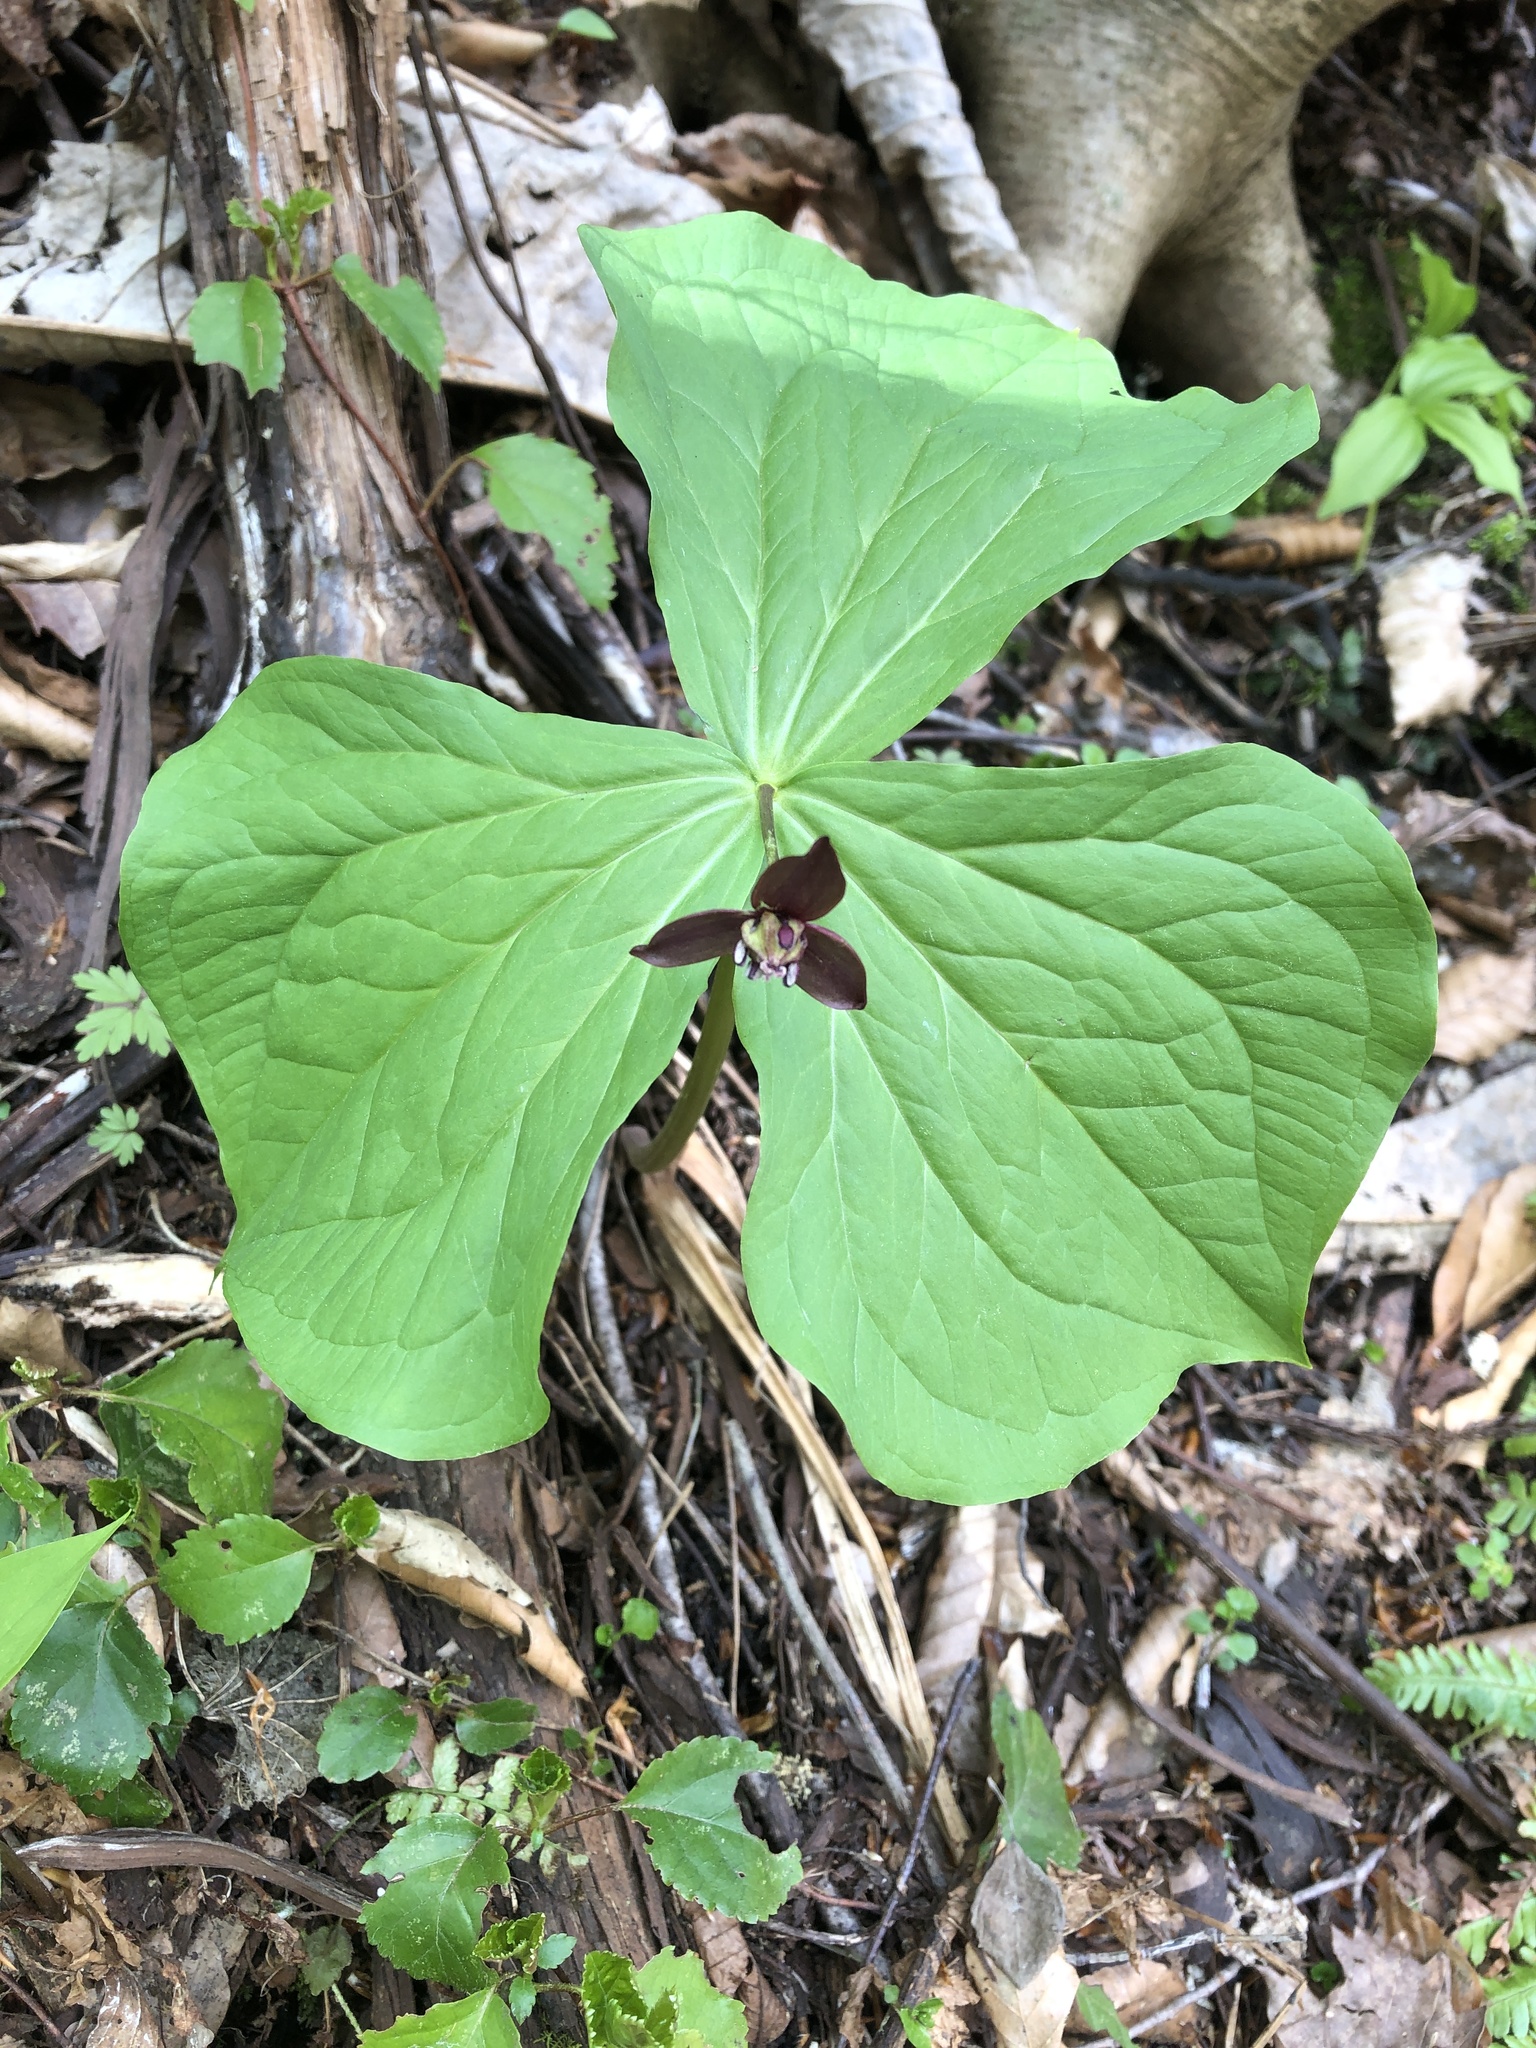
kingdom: Plantae
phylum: Tracheophyta
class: Liliopsida
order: Liliales
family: Melanthiaceae
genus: Trillium
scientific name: Trillium apetalon
